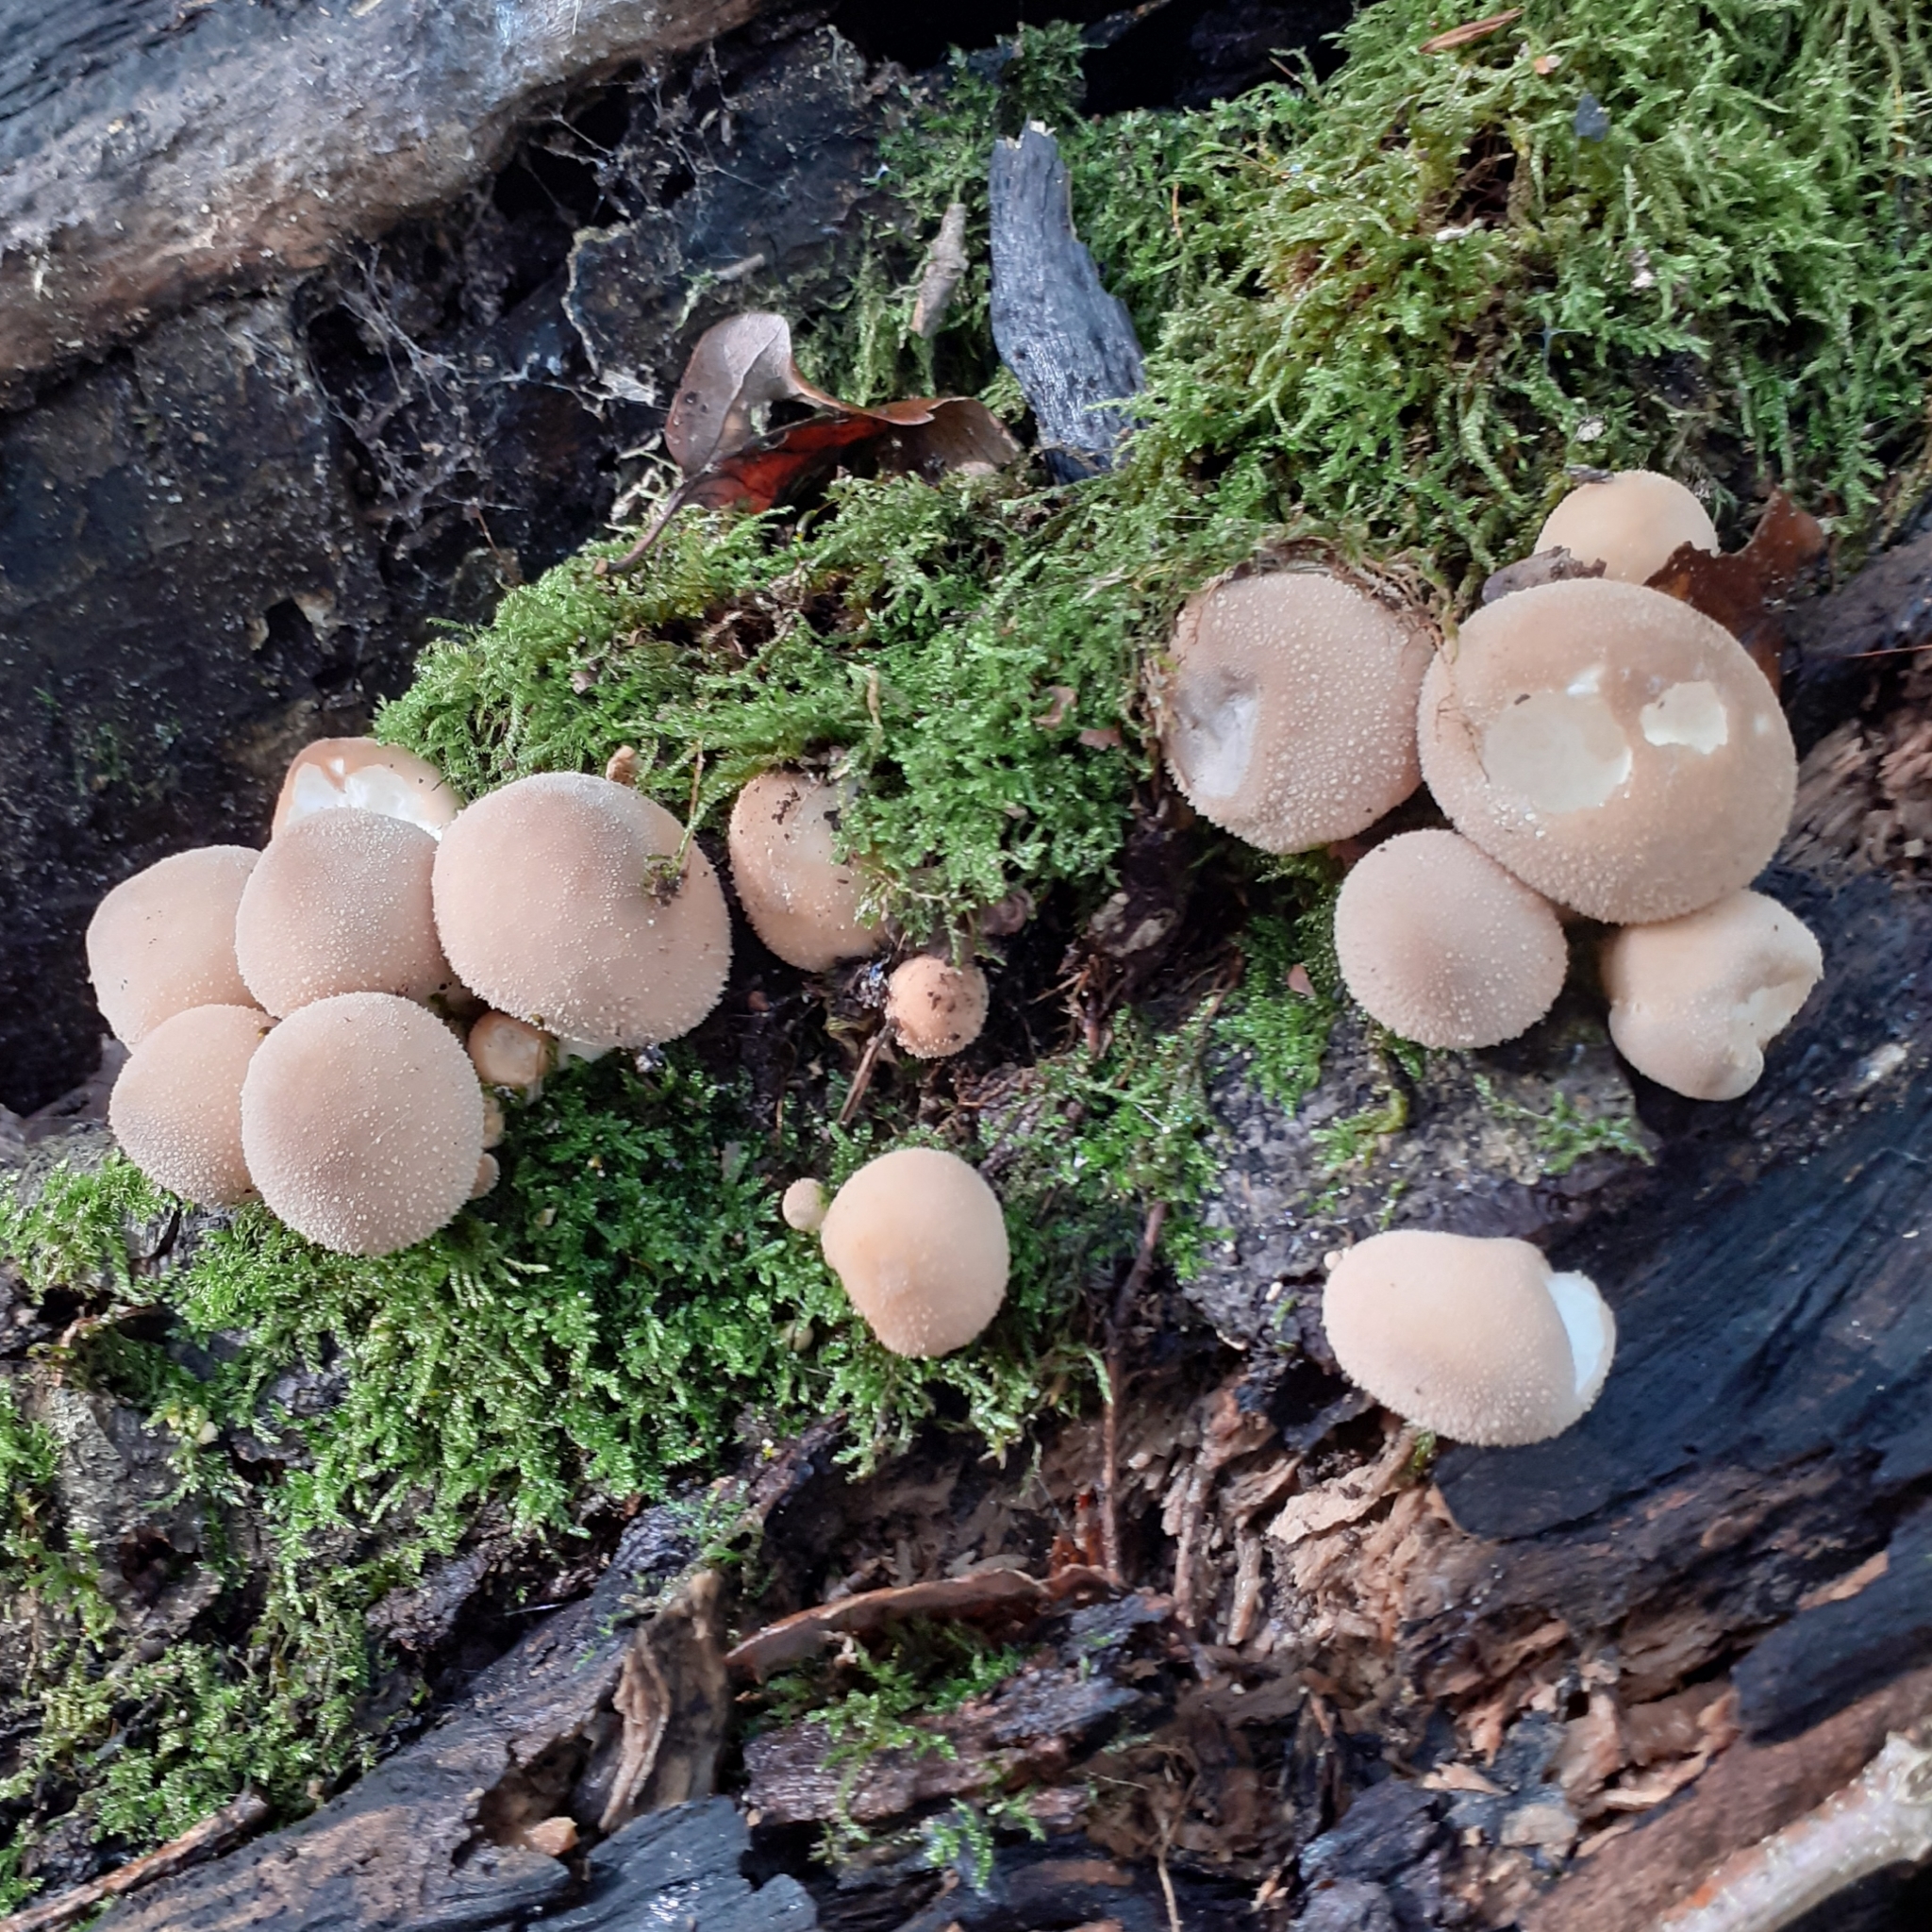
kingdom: Fungi
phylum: Basidiomycota
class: Agaricomycetes
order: Agaricales
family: Lycoperdaceae
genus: Apioperdon
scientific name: Apioperdon pyriforme
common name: Pear-shaped puffball
